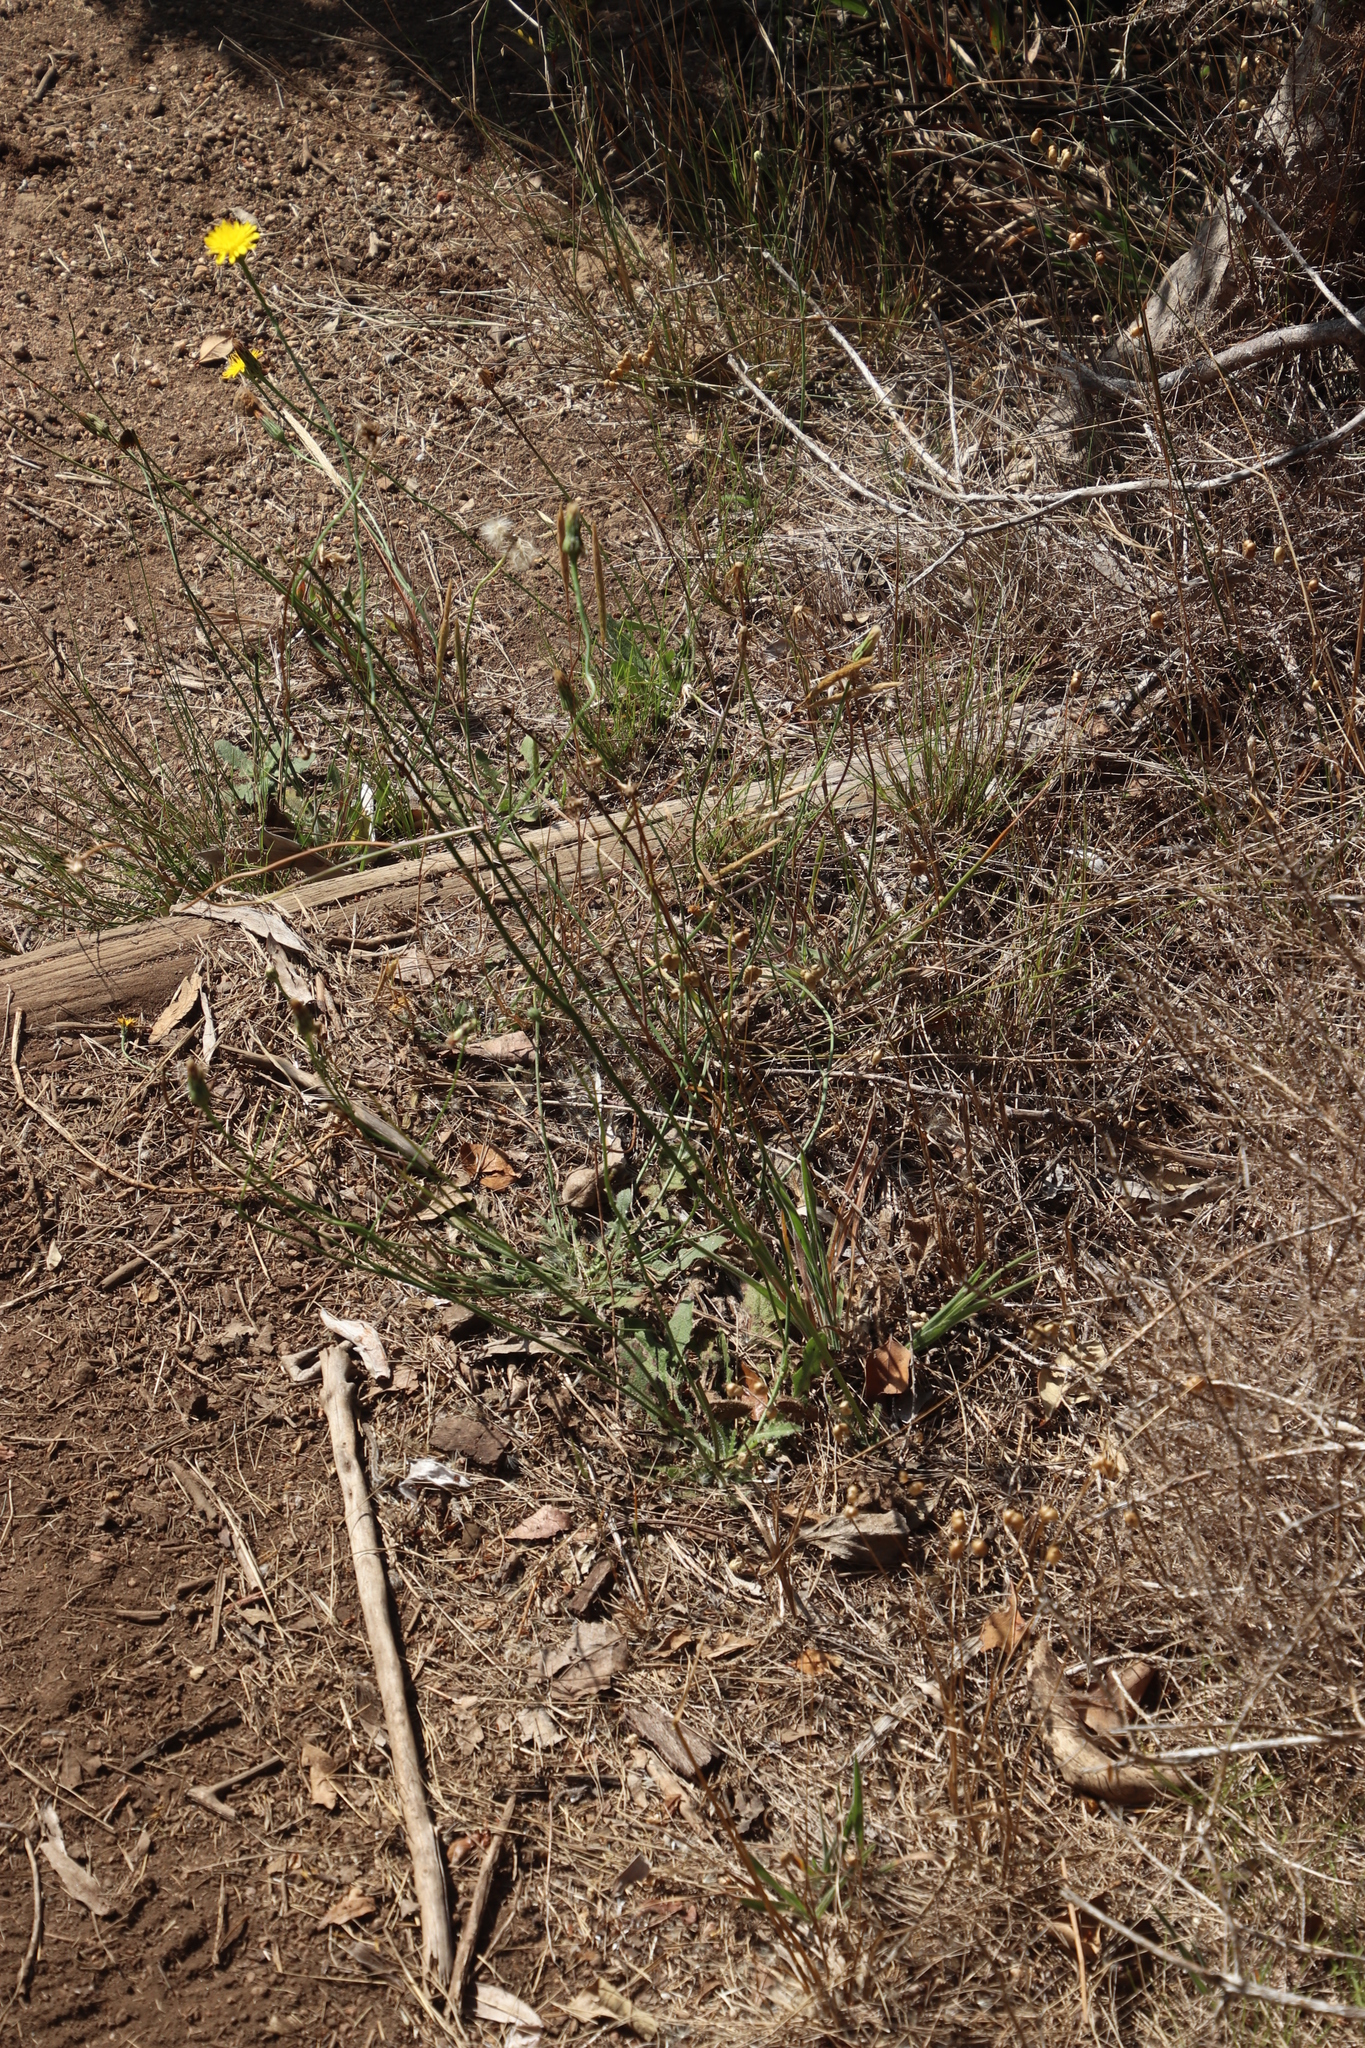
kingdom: Plantae
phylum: Tracheophyta
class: Magnoliopsida
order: Asterales
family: Asteraceae
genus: Hypochaeris
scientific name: Hypochaeris radicata
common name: Flatweed
